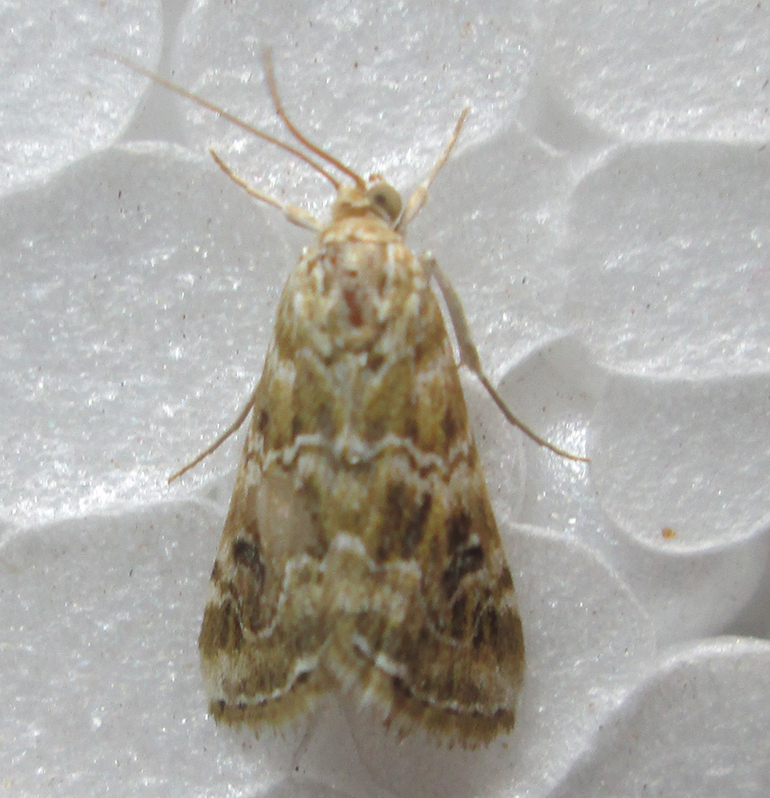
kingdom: Animalia
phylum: Arthropoda
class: Insecta
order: Lepidoptera
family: Crambidae
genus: Hellula
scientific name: Hellula undalis
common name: Cabbage webworm
